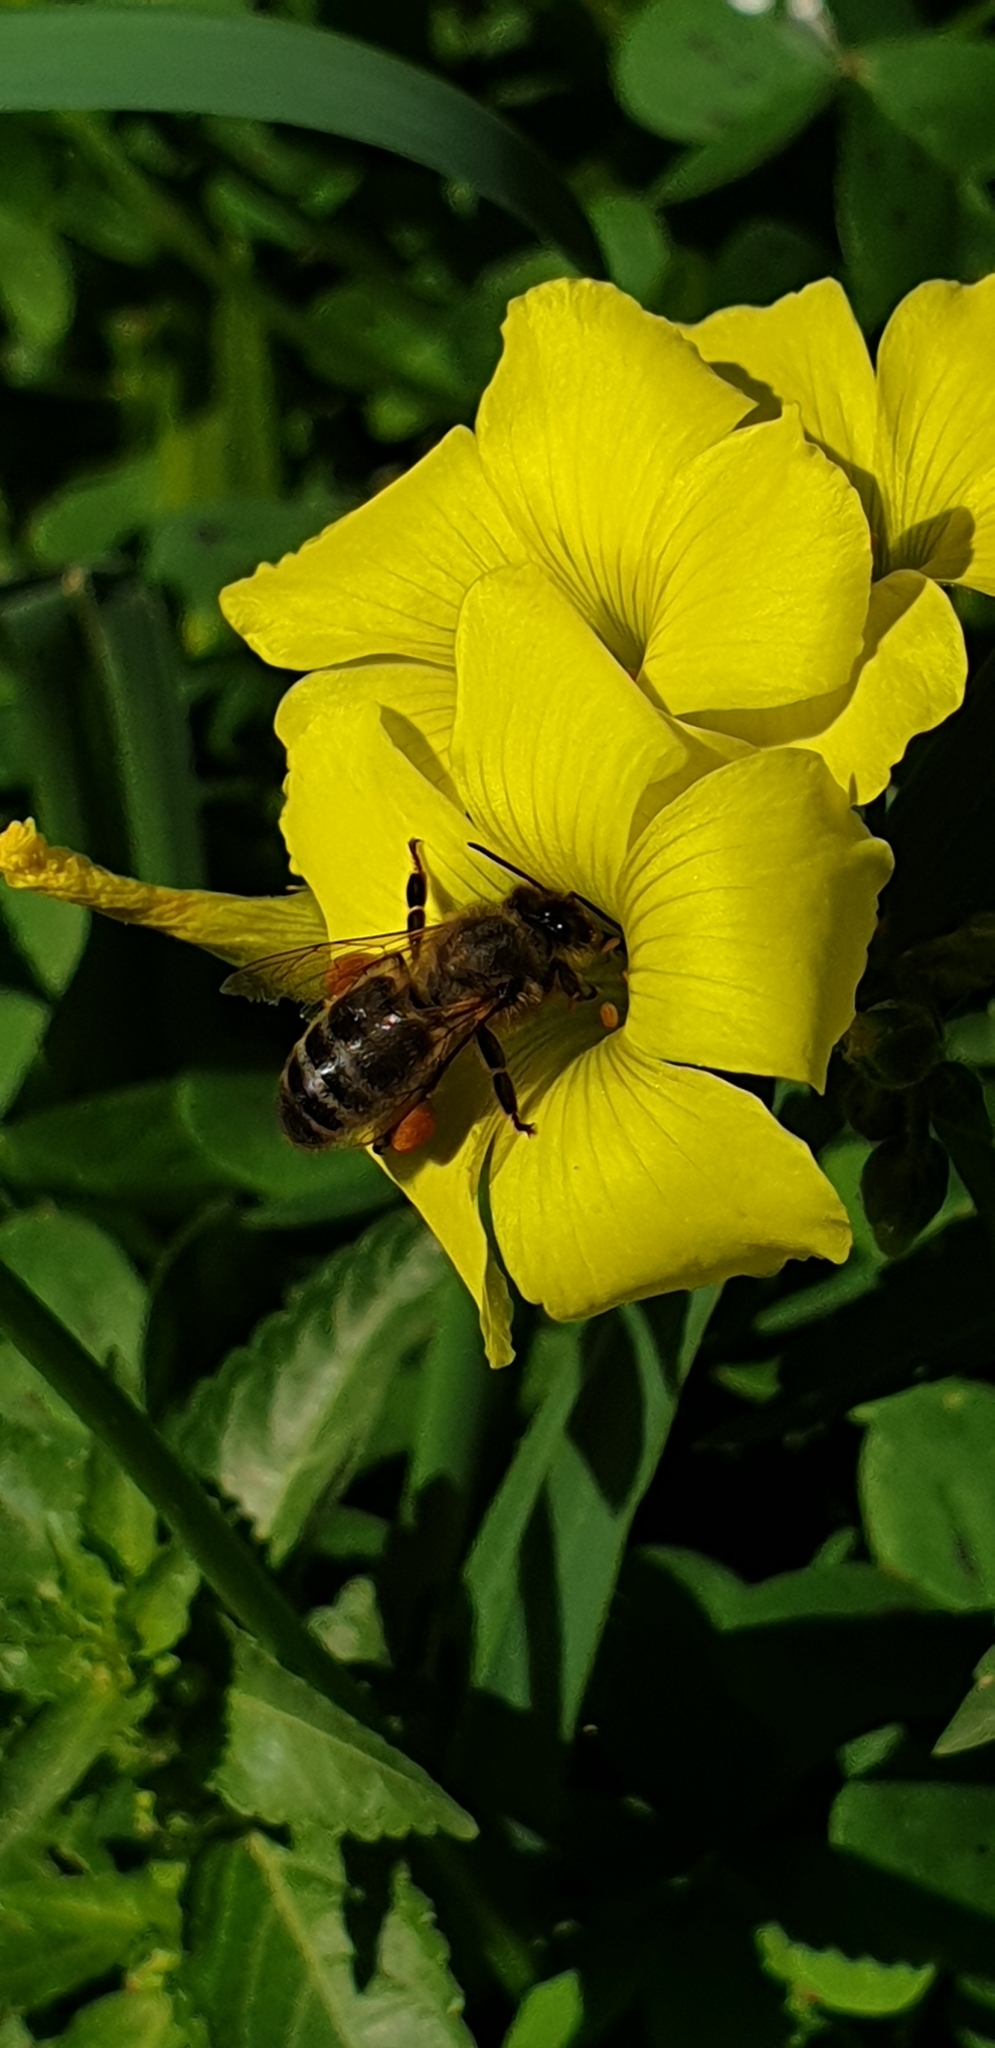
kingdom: Animalia
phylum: Arthropoda
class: Insecta
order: Hymenoptera
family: Apidae
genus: Apis
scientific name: Apis mellifera
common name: Honey bee
